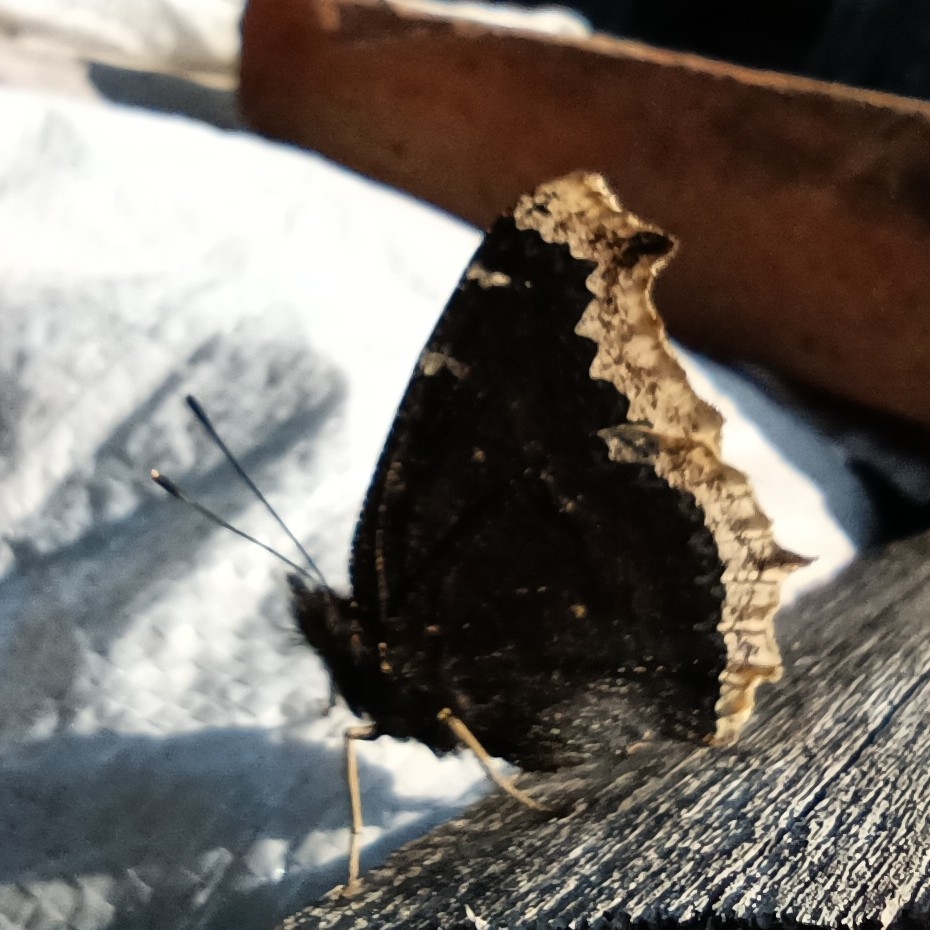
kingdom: Animalia
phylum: Arthropoda
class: Insecta
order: Lepidoptera
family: Nymphalidae
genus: Nymphalis
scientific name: Nymphalis antiopa
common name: Camberwell beauty
